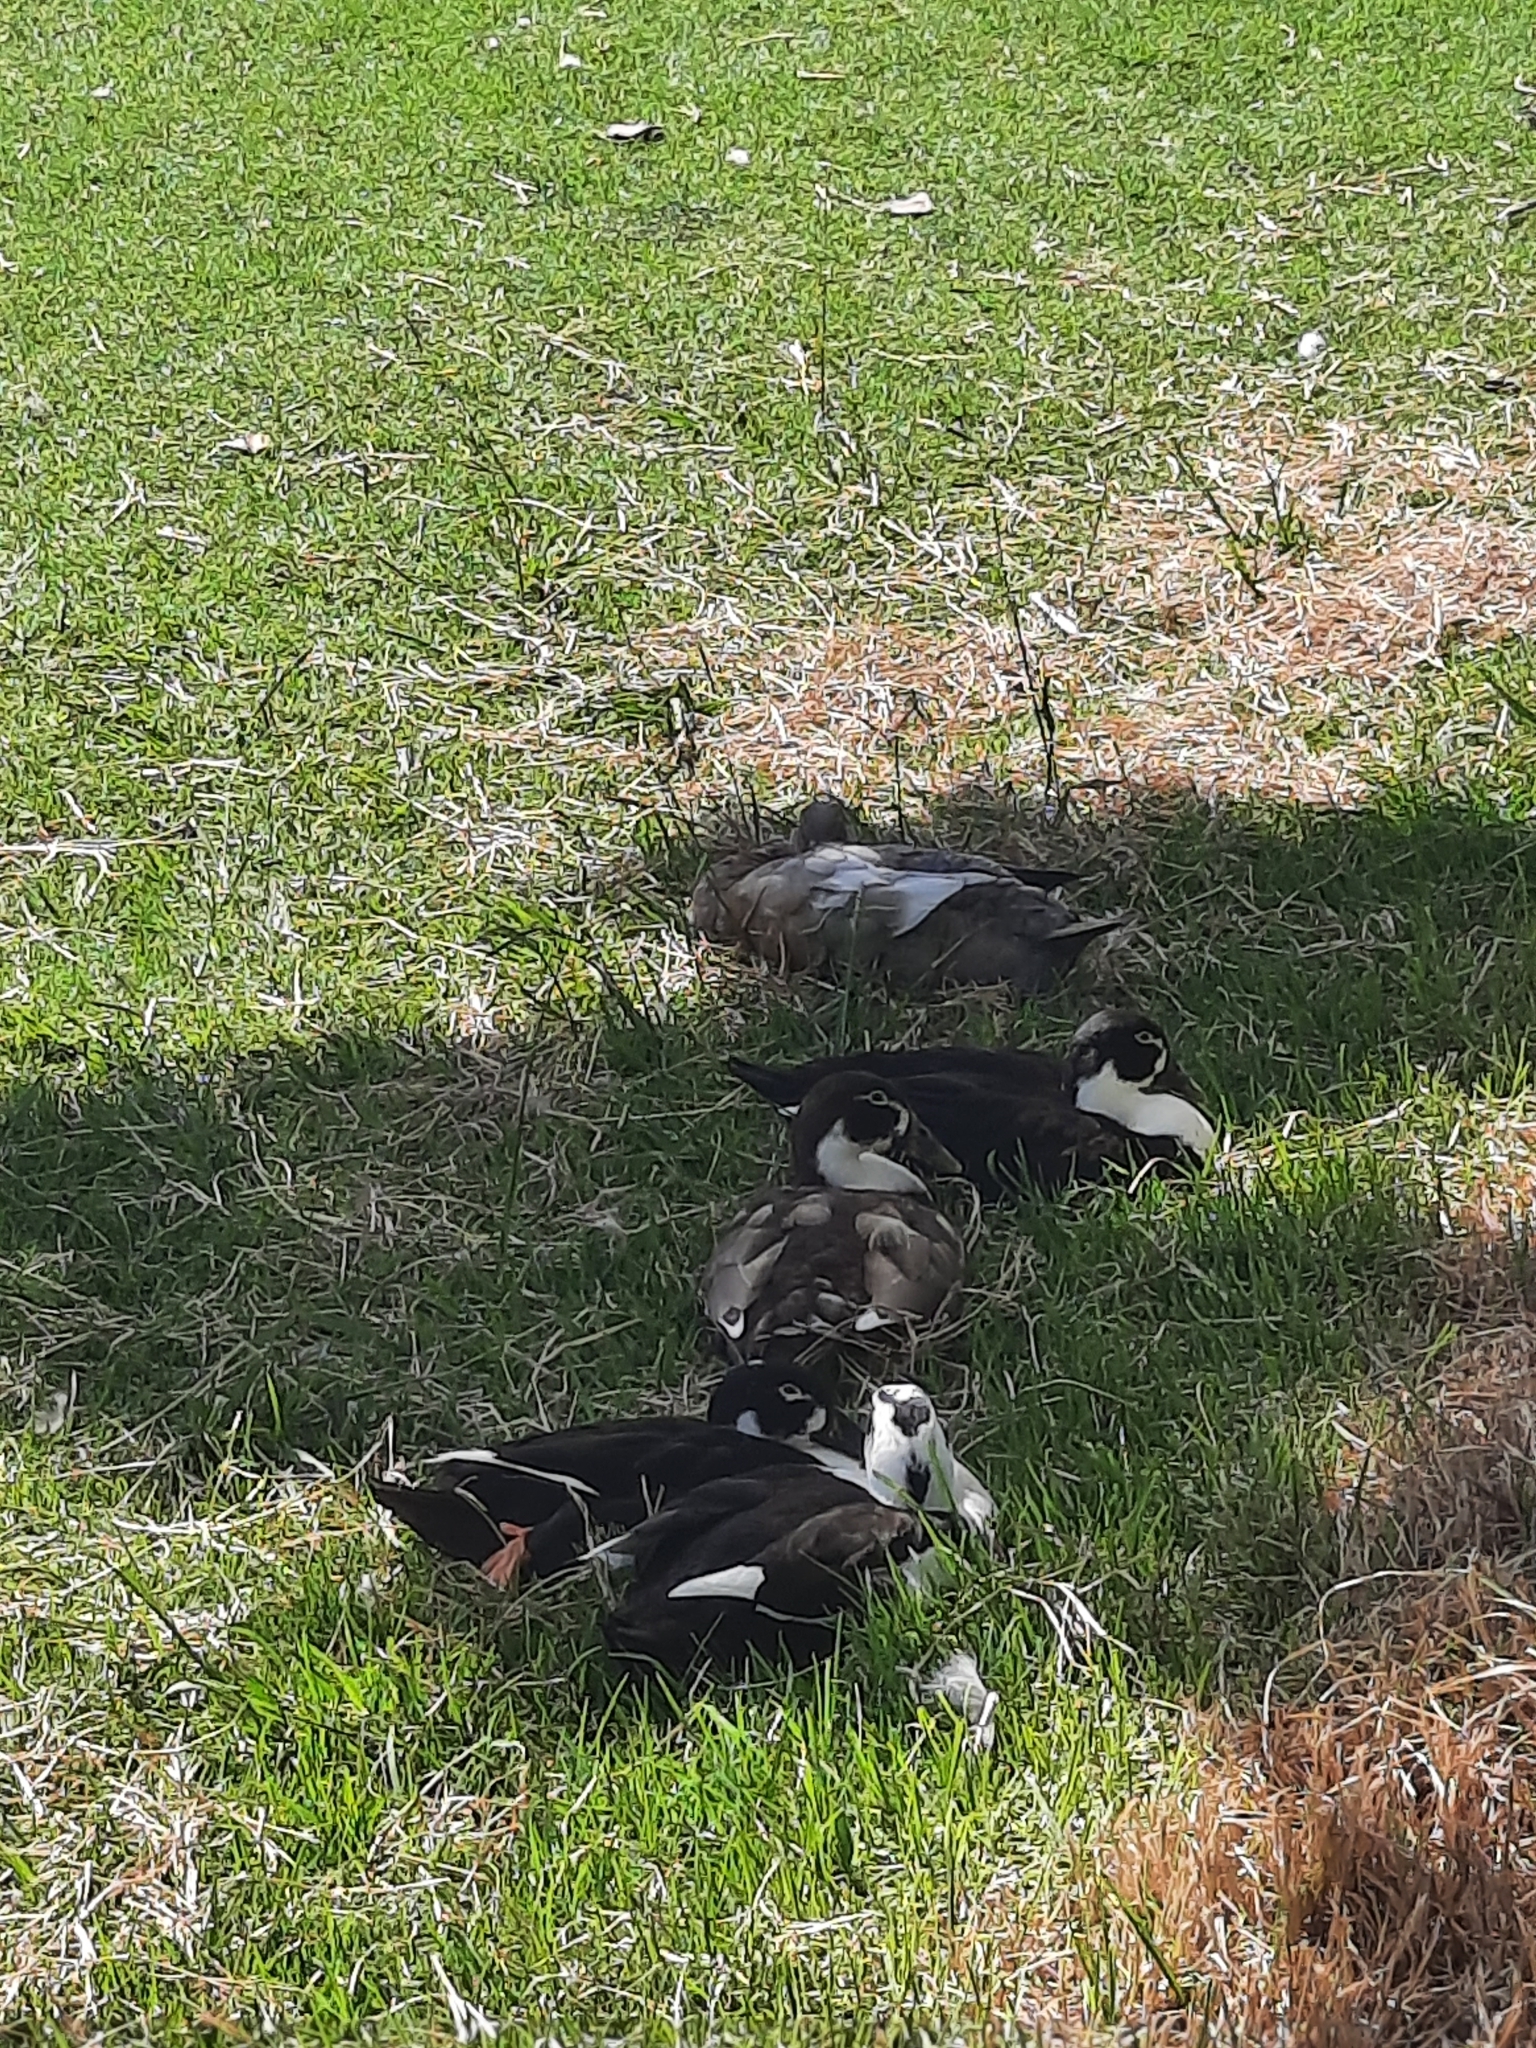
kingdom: Animalia
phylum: Chordata
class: Aves
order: Anseriformes
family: Anatidae
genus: Anas
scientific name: Anas platyrhynchos
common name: Mallard
